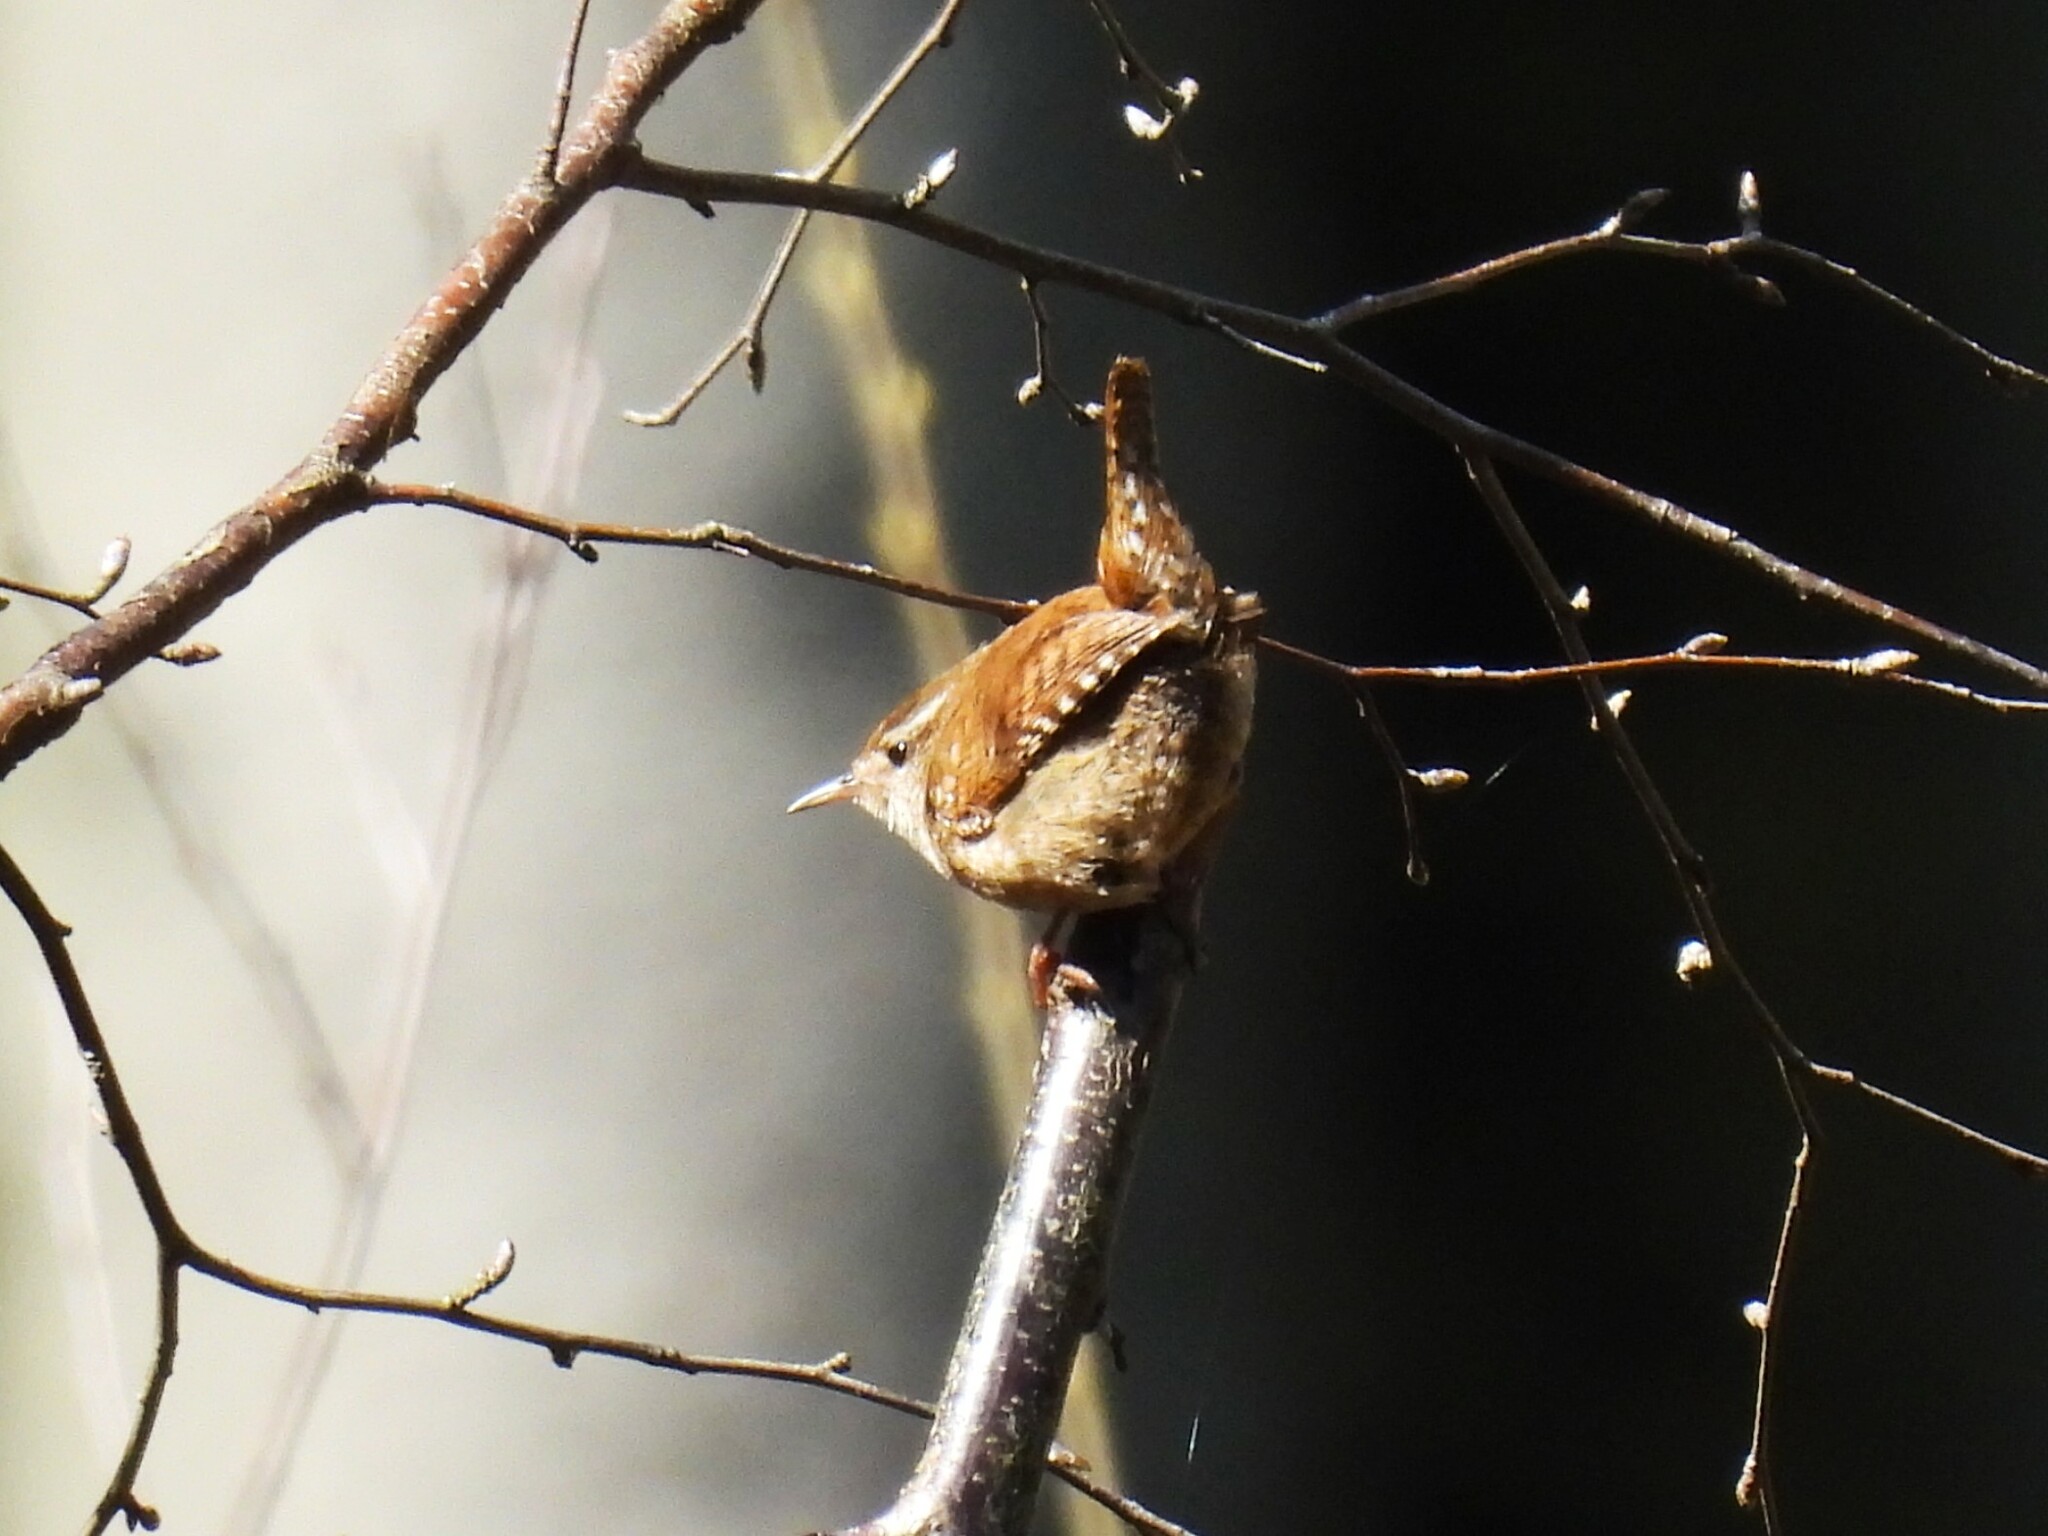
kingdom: Animalia
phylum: Chordata
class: Aves
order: Passeriformes
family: Troglodytidae
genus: Troglodytes
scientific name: Troglodytes troglodytes
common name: Eurasian wren
